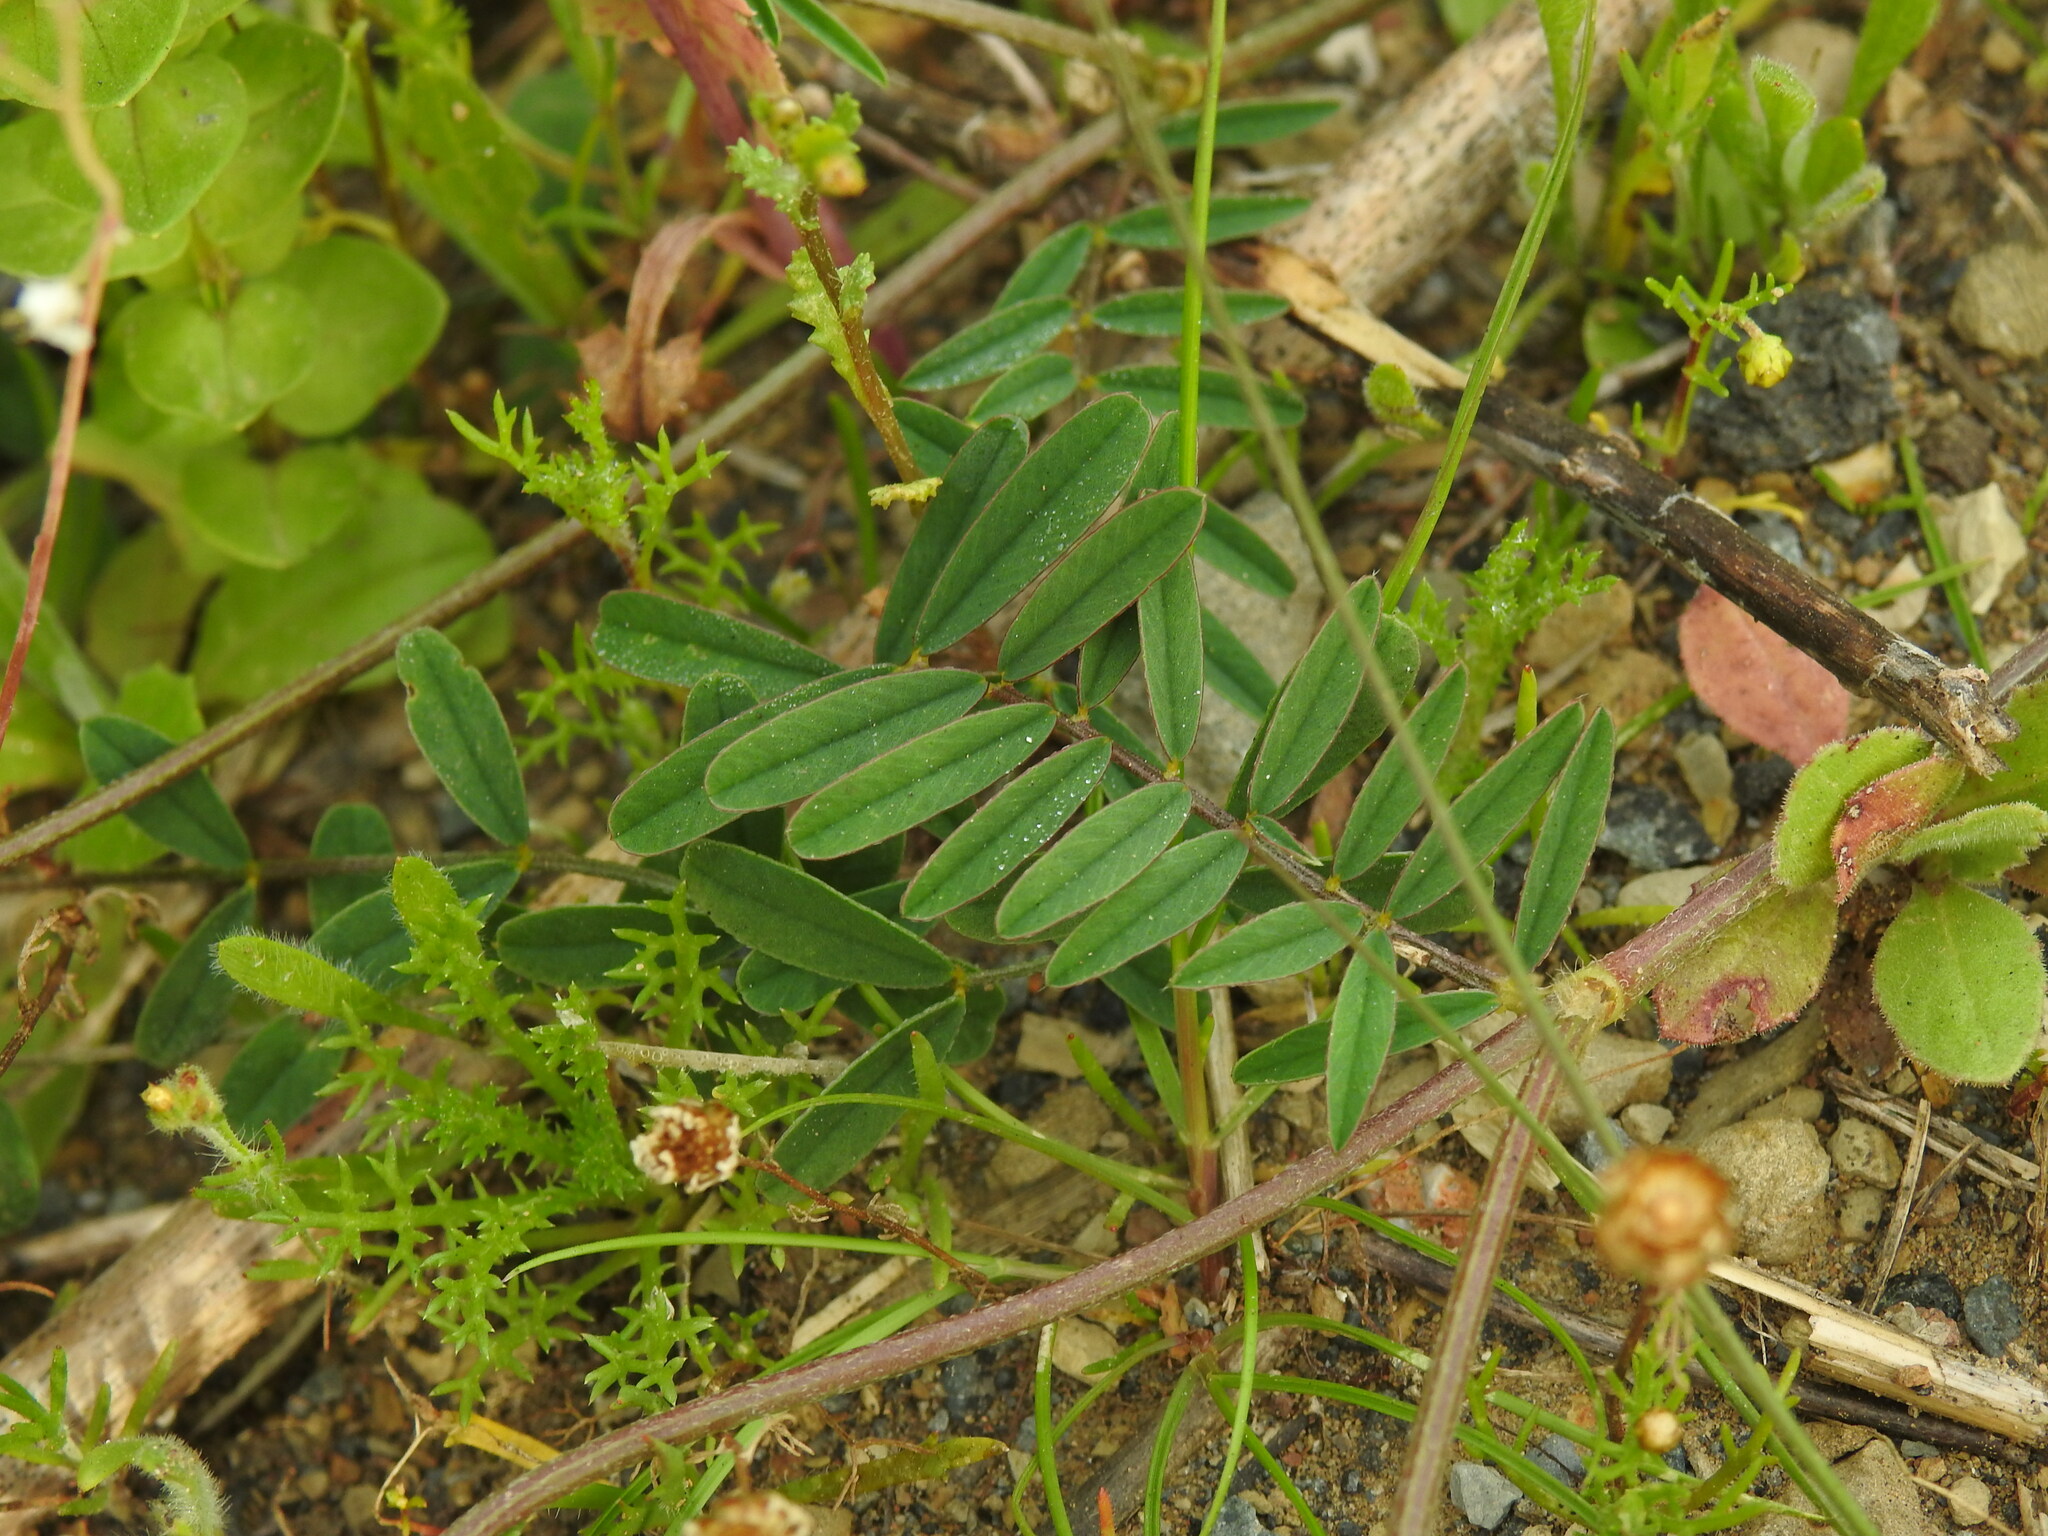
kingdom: Plantae
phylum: Tracheophyta
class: Magnoliopsida
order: Fabales
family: Fabaceae
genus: Onobrychis
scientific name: Onobrychis humilis
